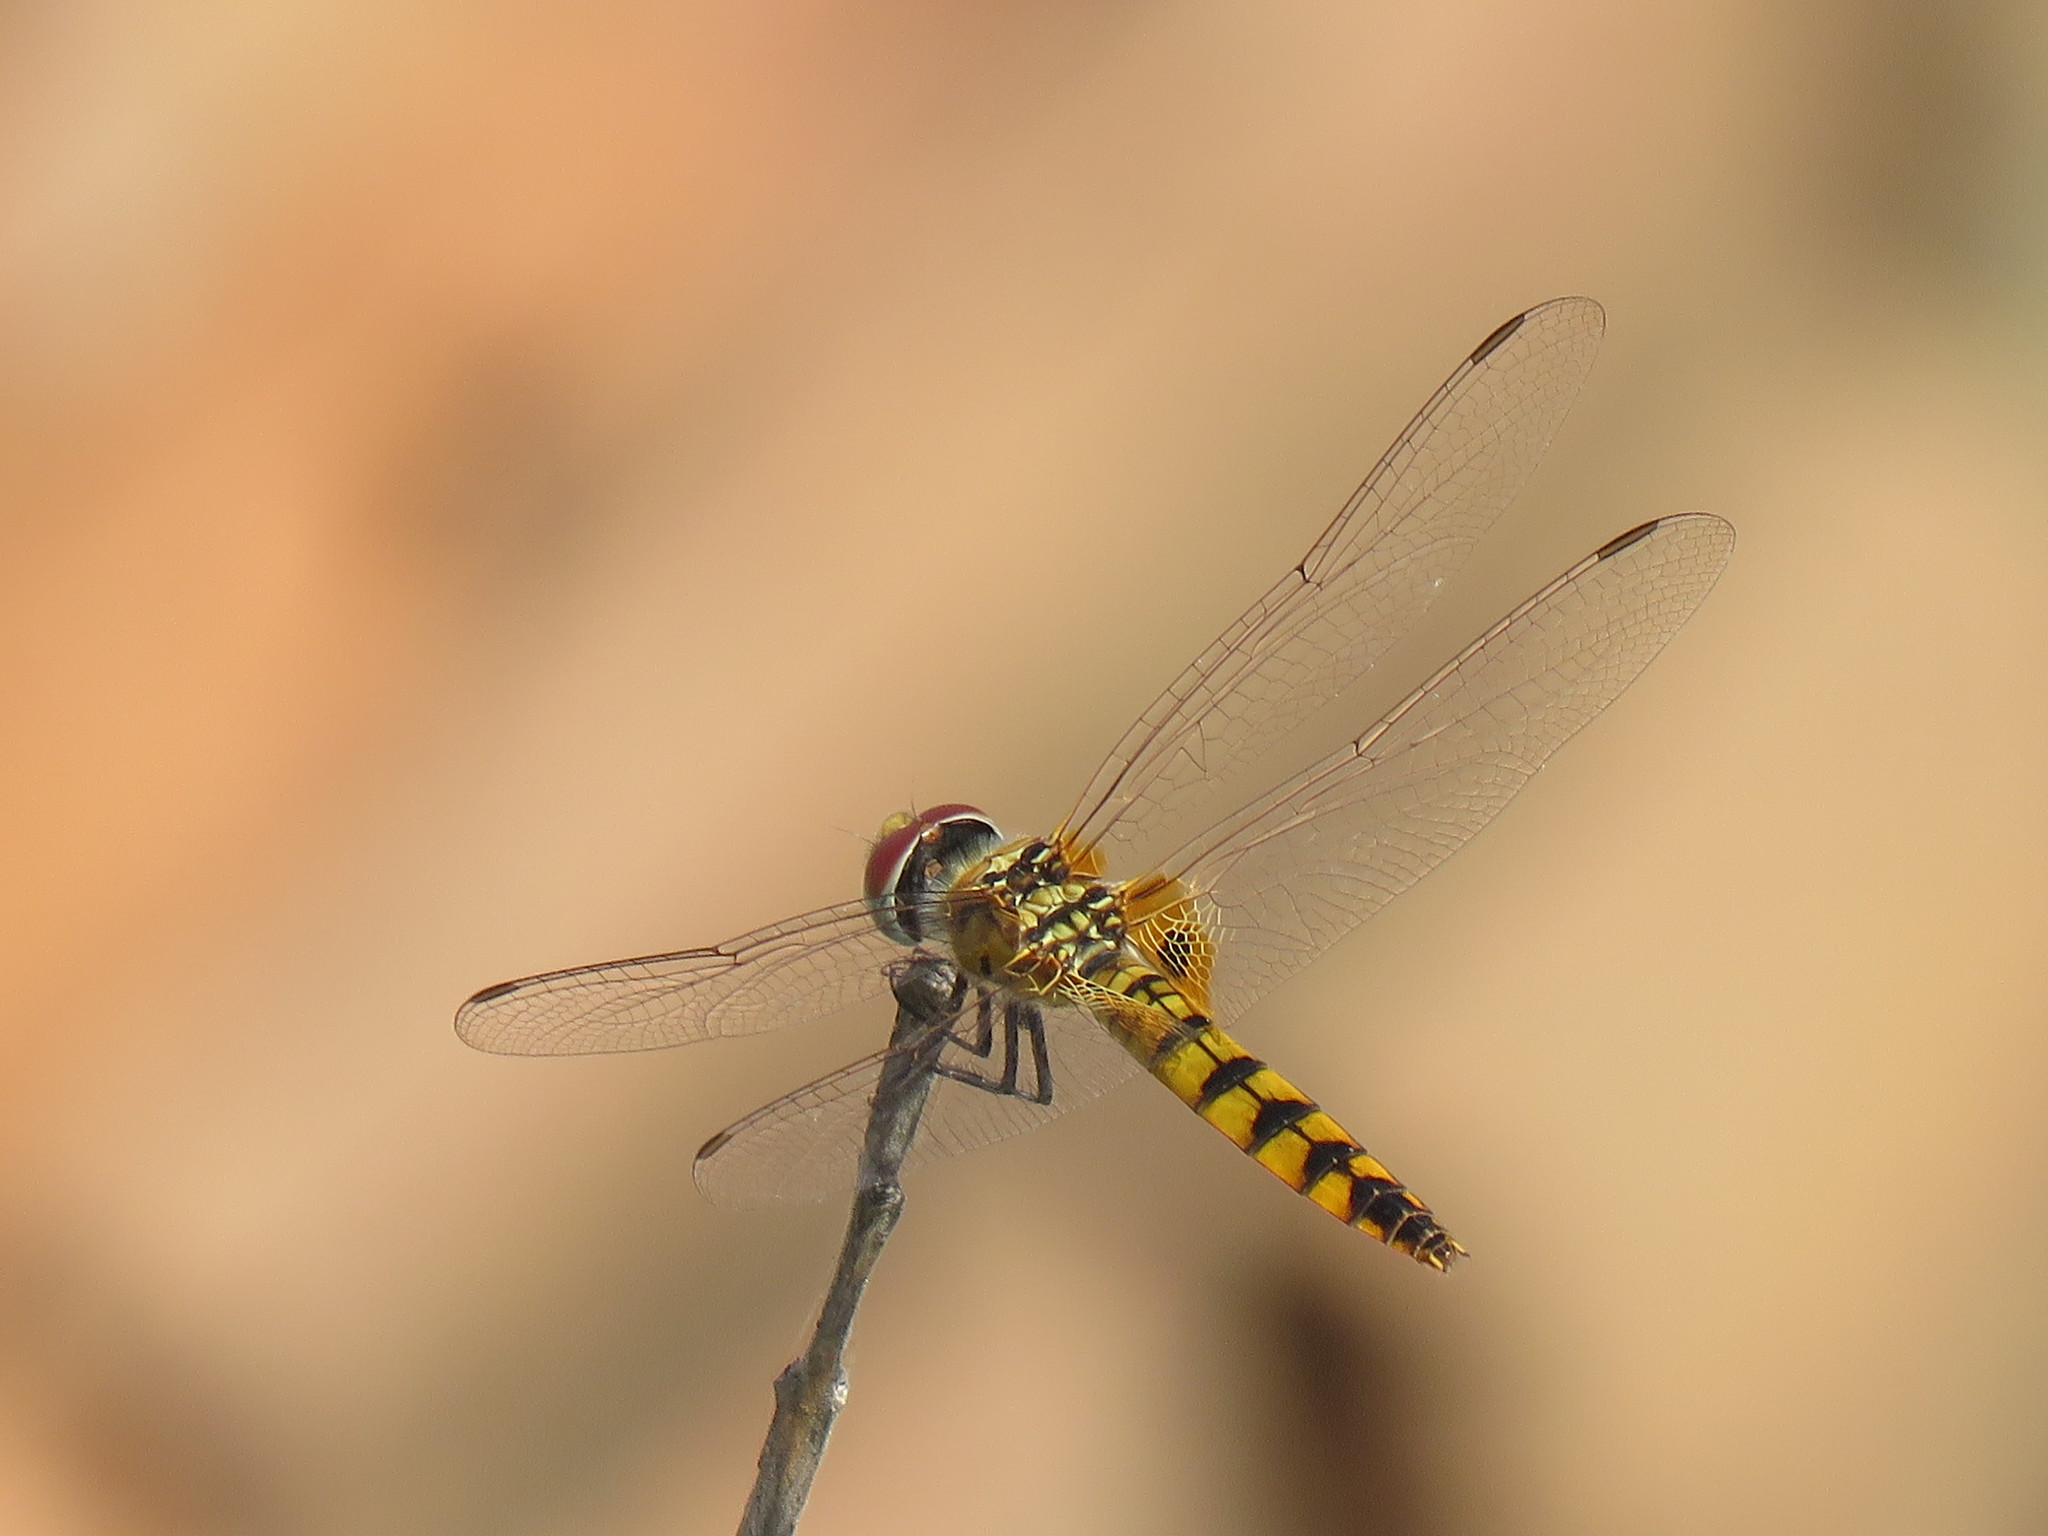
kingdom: Animalia
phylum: Arthropoda
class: Insecta
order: Odonata
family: Libellulidae
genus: Urothemis
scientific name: Urothemis signata
